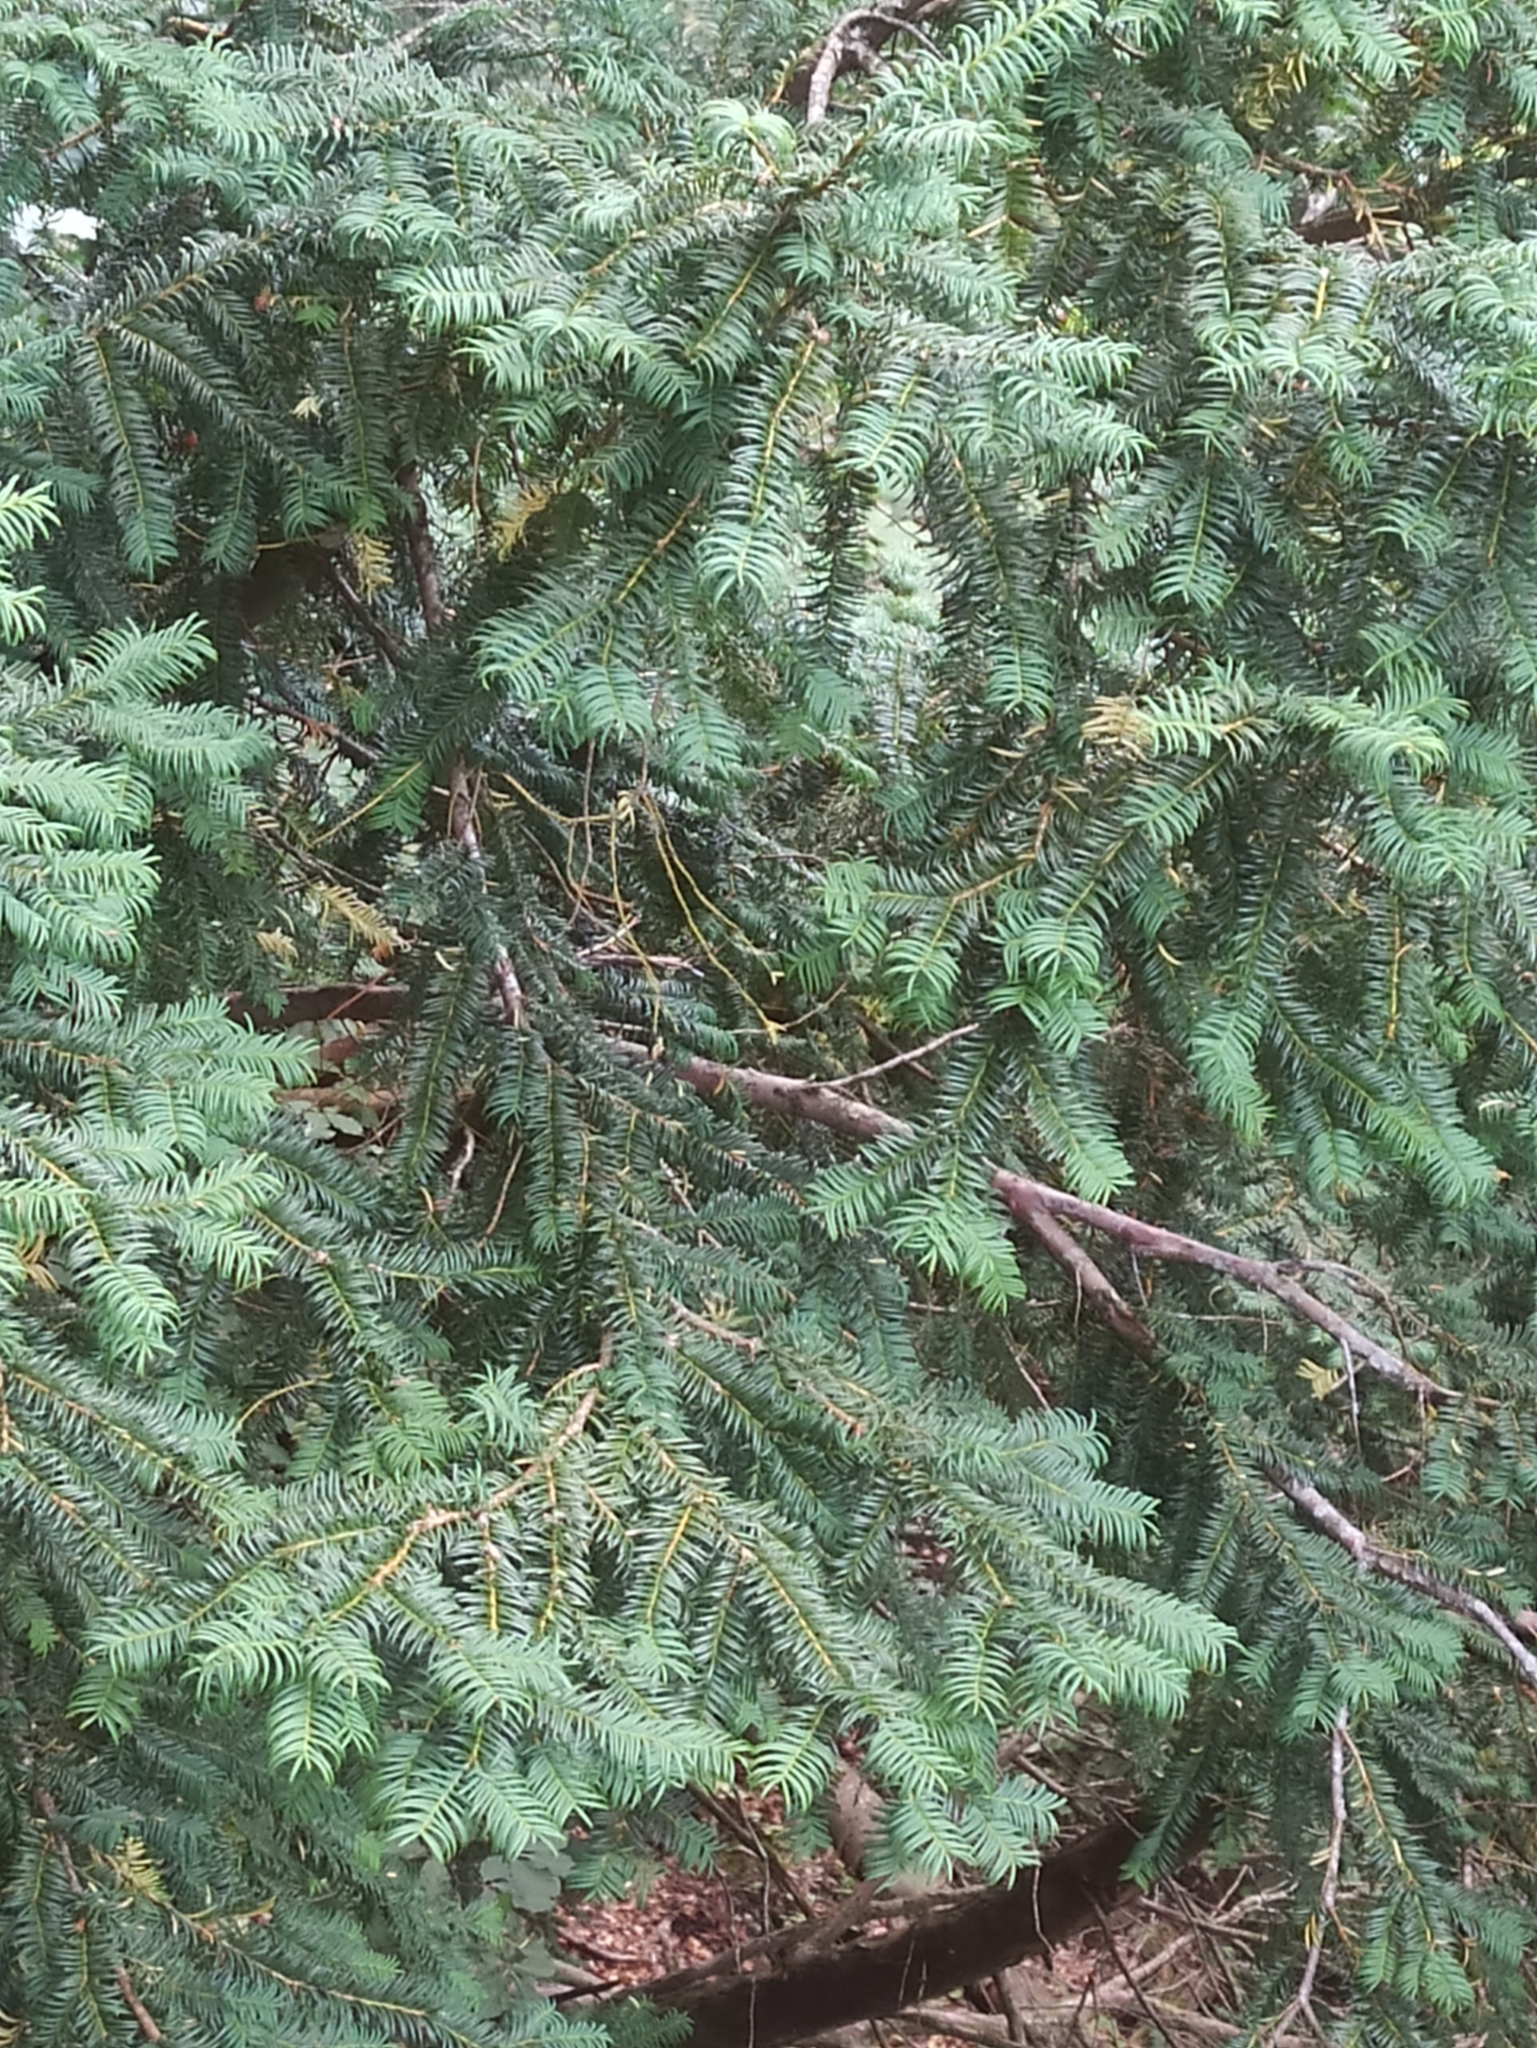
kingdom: Plantae
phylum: Tracheophyta
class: Pinopsida
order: Pinales
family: Taxaceae
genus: Taxus
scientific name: Taxus baccata
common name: Yew
